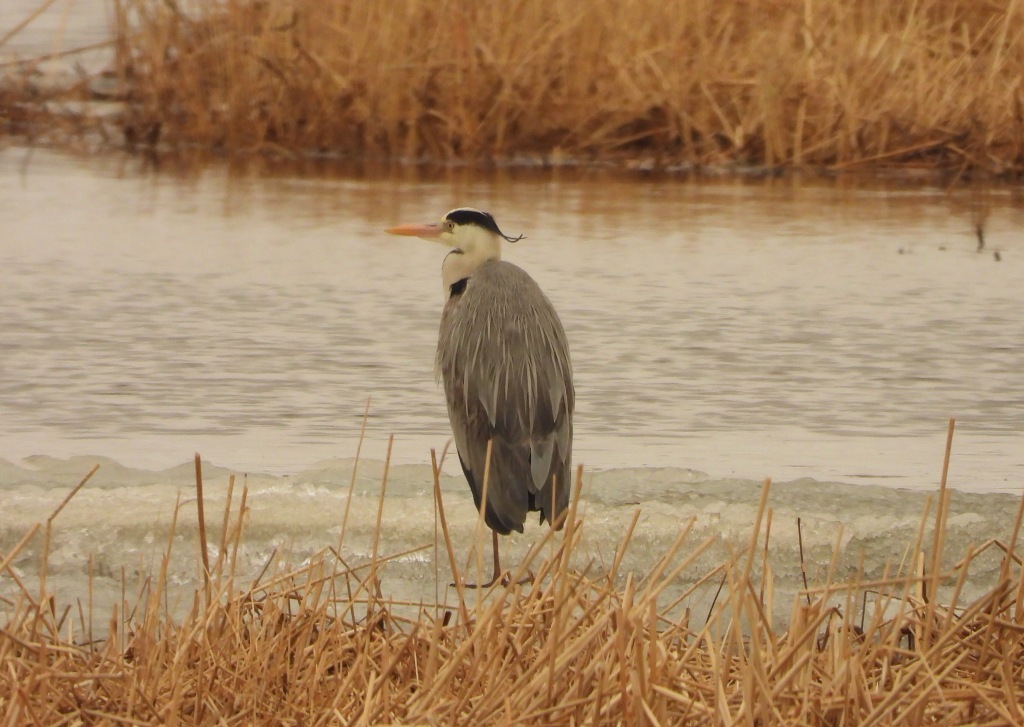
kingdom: Animalia
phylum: Chordata
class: Aves
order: Pelecaniformes
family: Ardeidae
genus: Ardea
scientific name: Ardea cinerea
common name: Grey heron
